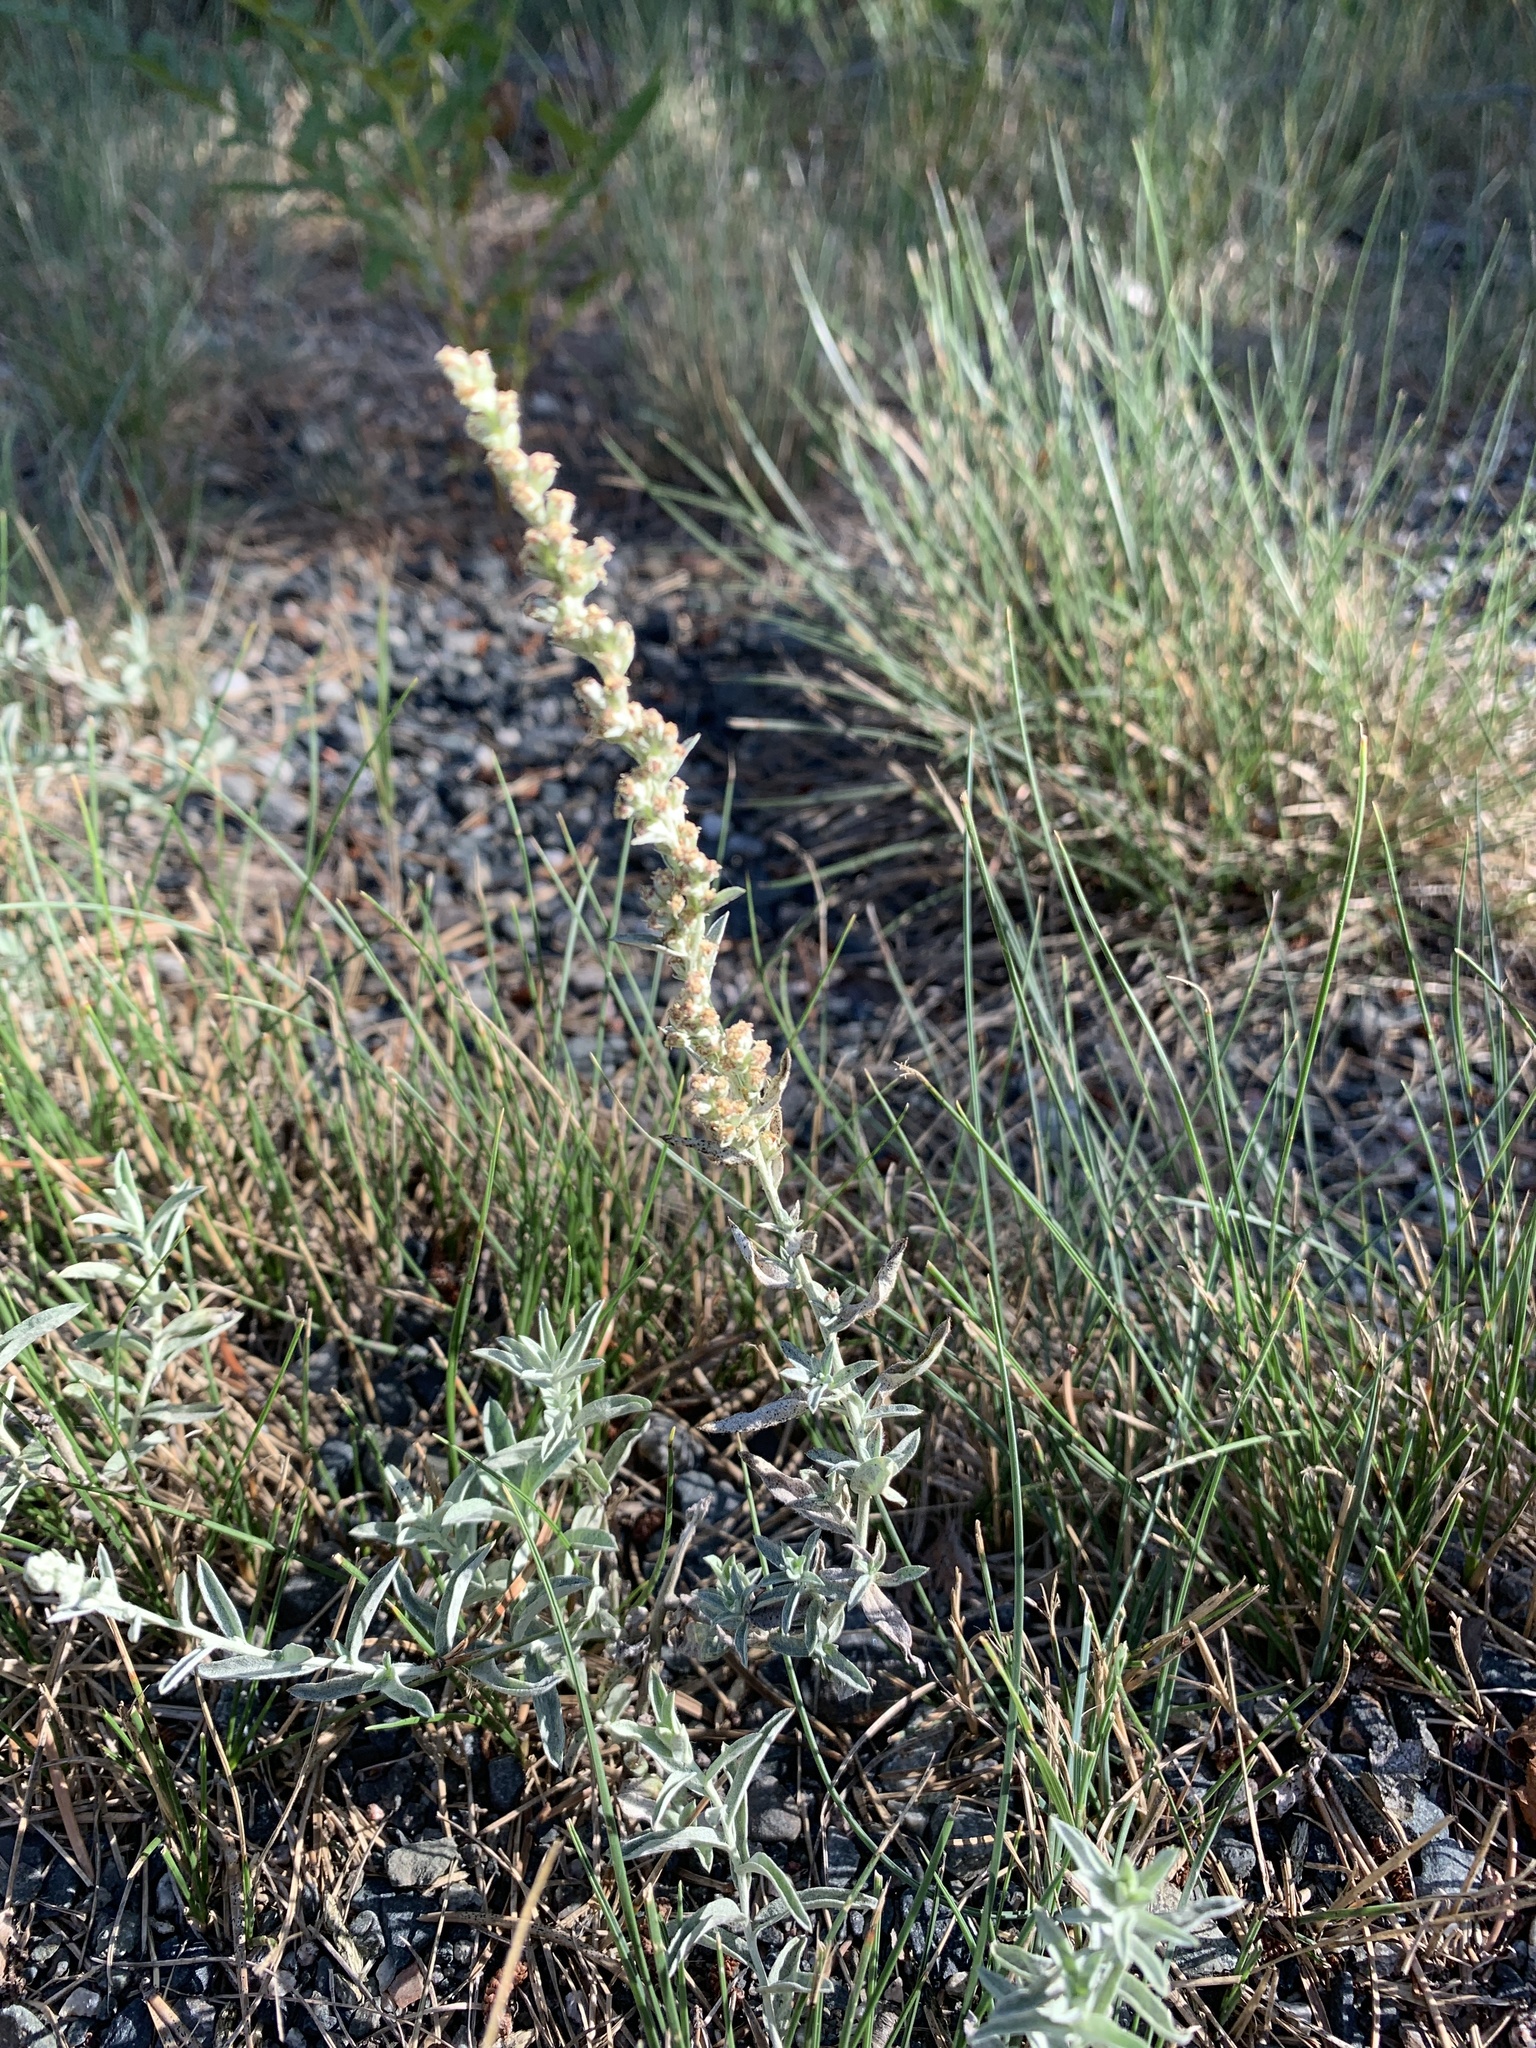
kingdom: Plantae
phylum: Tracheophyta
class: Magnoliopsida
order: Asterales
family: Asteraceae
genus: Artemisia
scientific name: Artemisia ludoviciana
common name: Western mugwort
